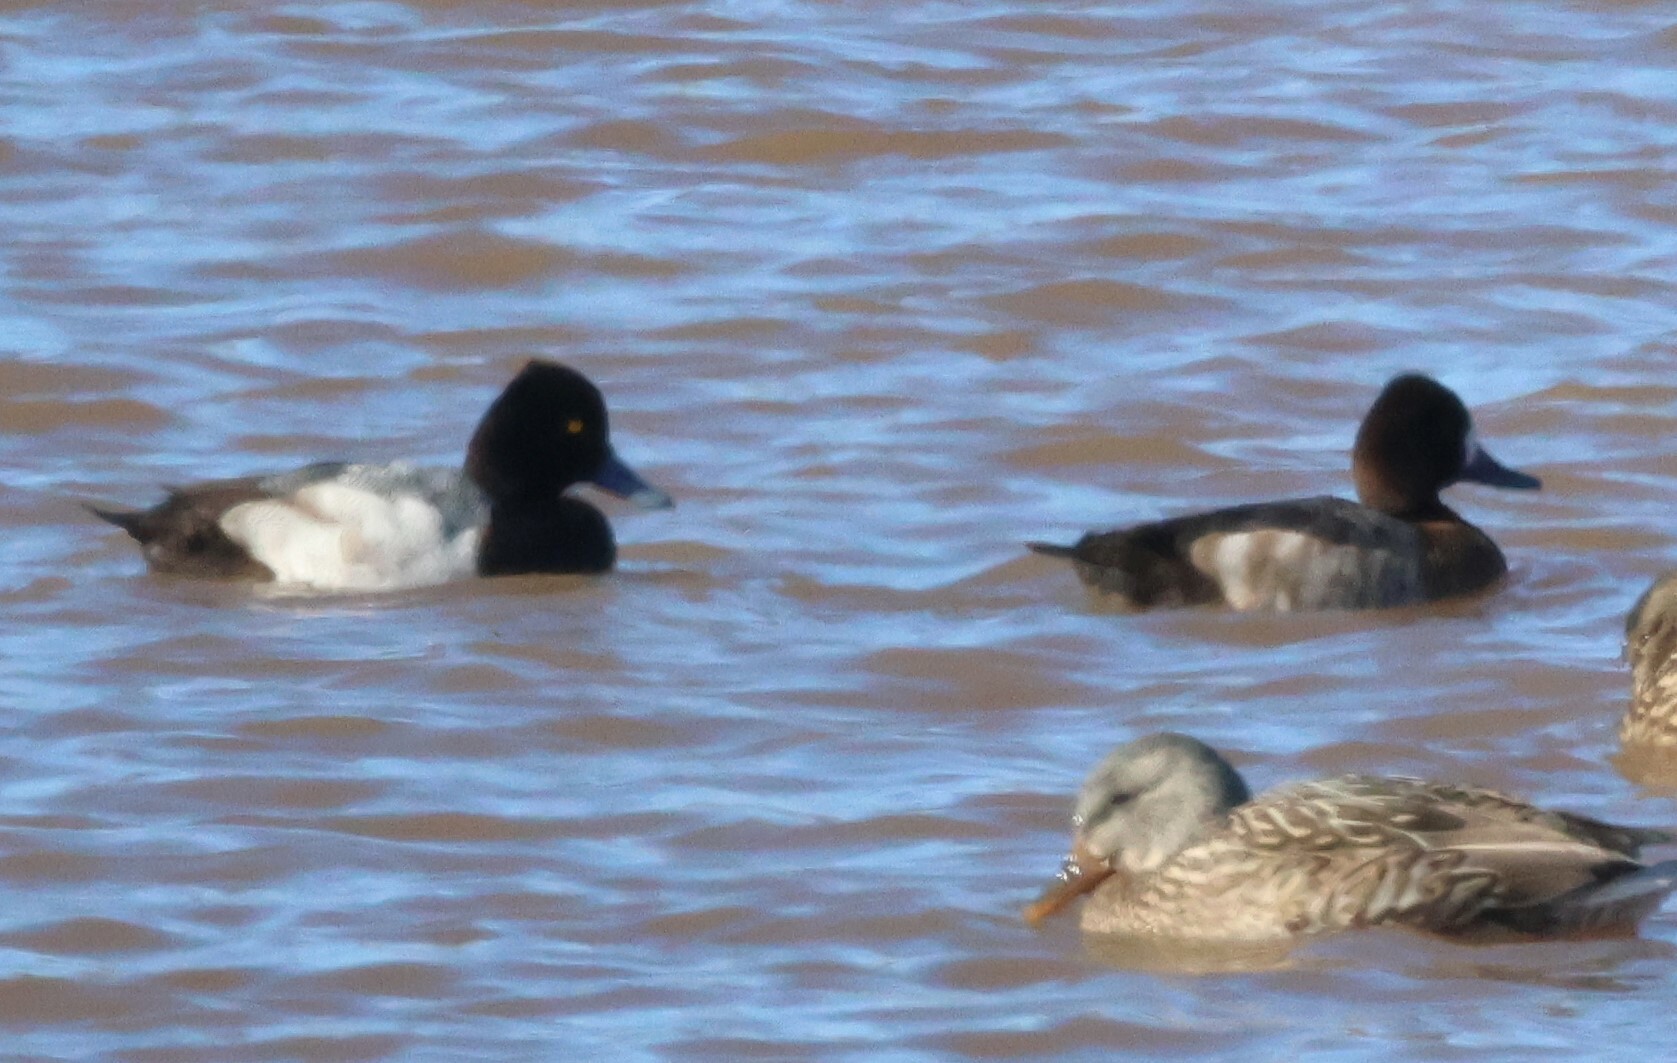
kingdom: Animalia
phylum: Chordata
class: Aves
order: Anseriformes
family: Anatidae
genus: Aythya
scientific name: Aythya affinis
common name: Lesser scaup
